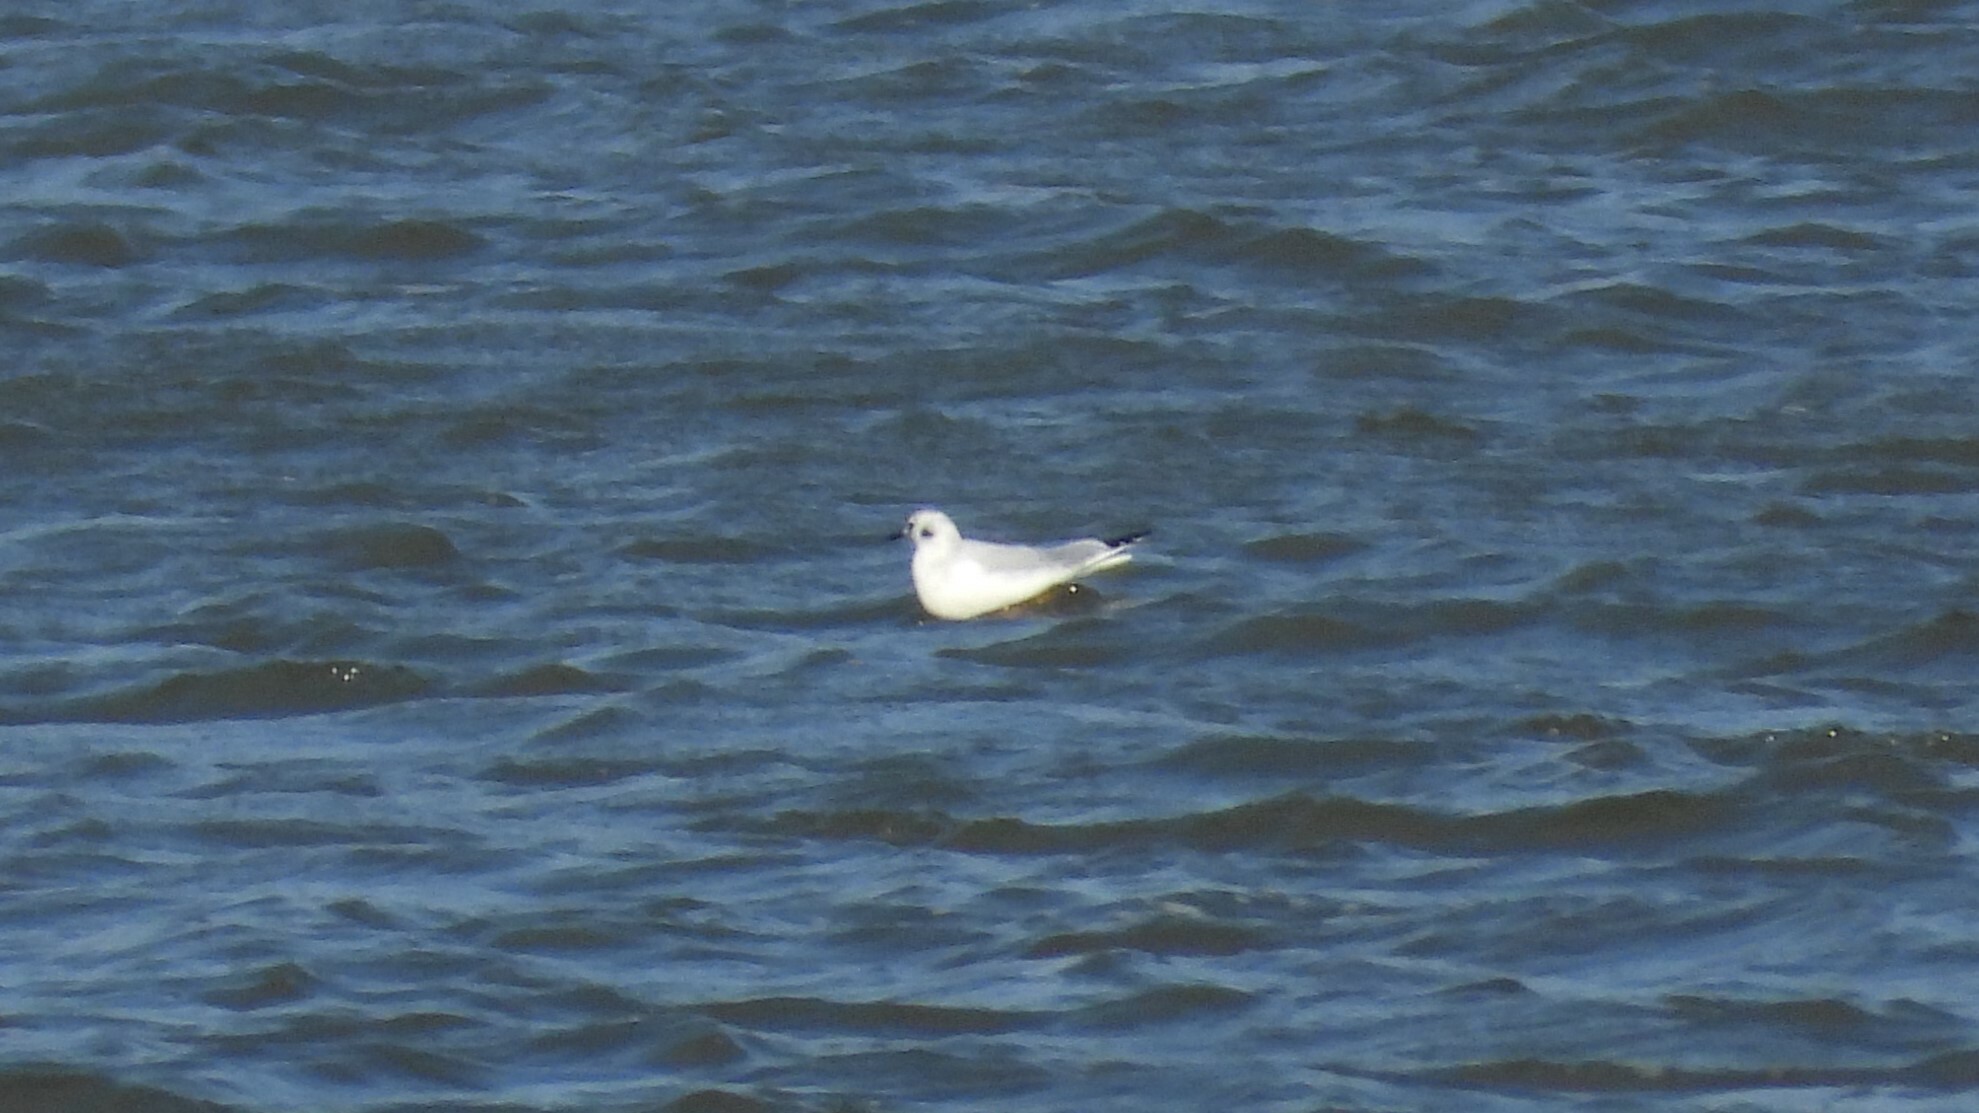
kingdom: Animalia
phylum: Chordata
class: Aves
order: Charadriiformes
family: Laridae
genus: Chroicocephalus
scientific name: Chroicocephalus philadelphia
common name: Bonaparte's gull
